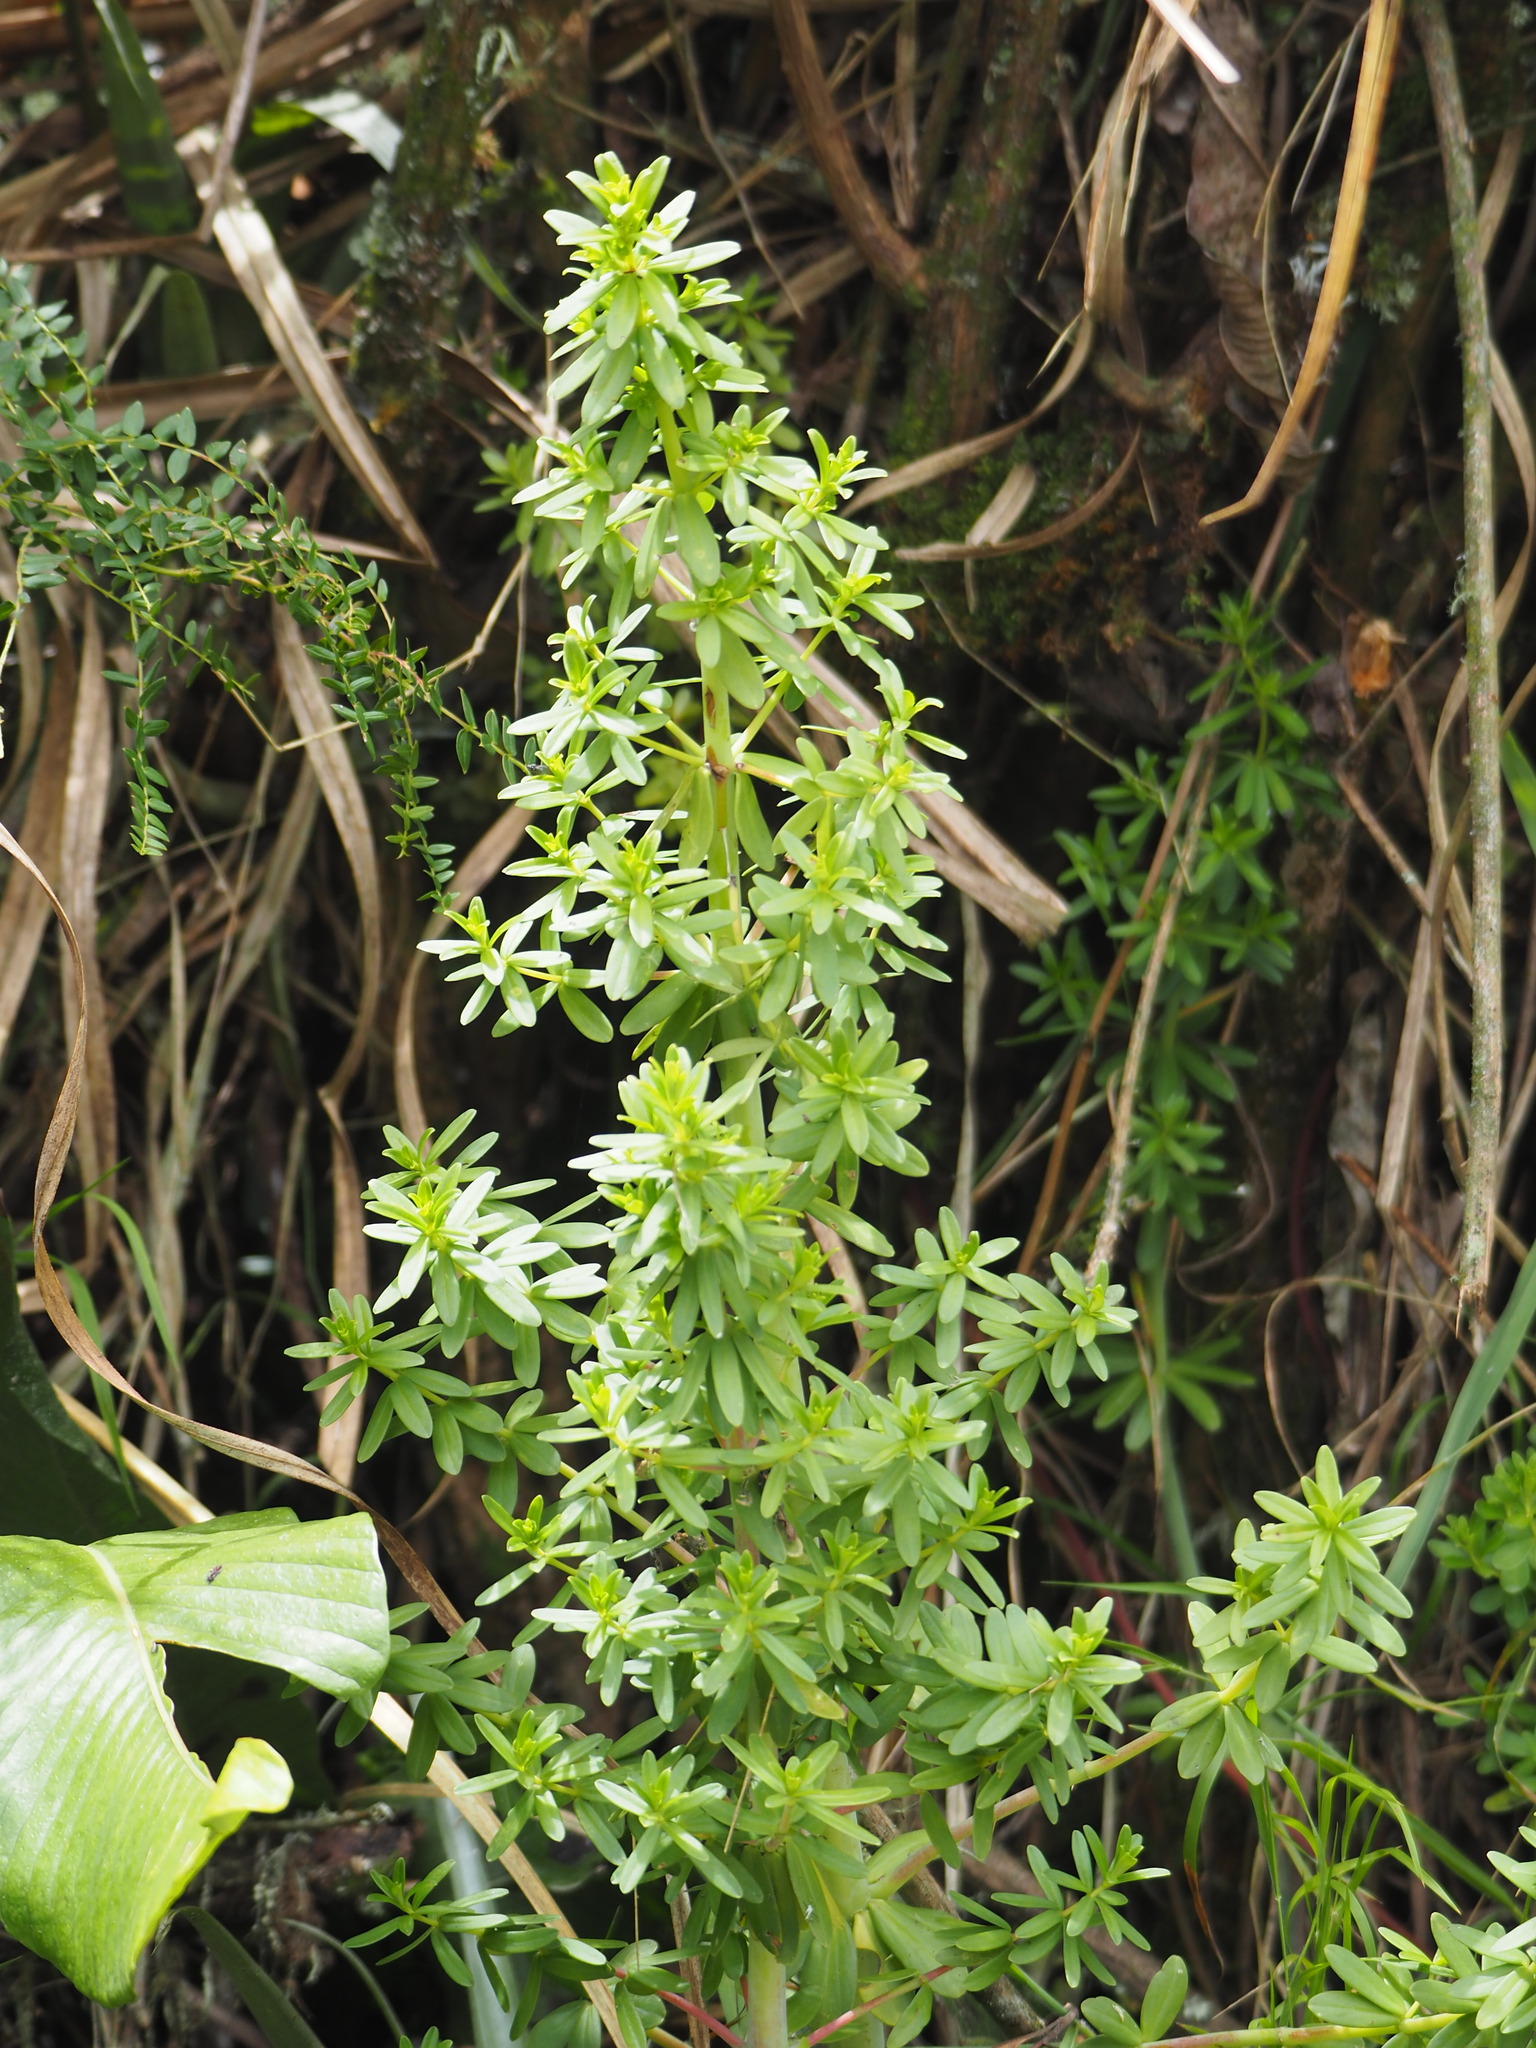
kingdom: Plantae
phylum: Tracheophyta
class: Magnoliopsida
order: Piperales
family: Piperaceae
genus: Peperomia
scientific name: Peperomia galioides
